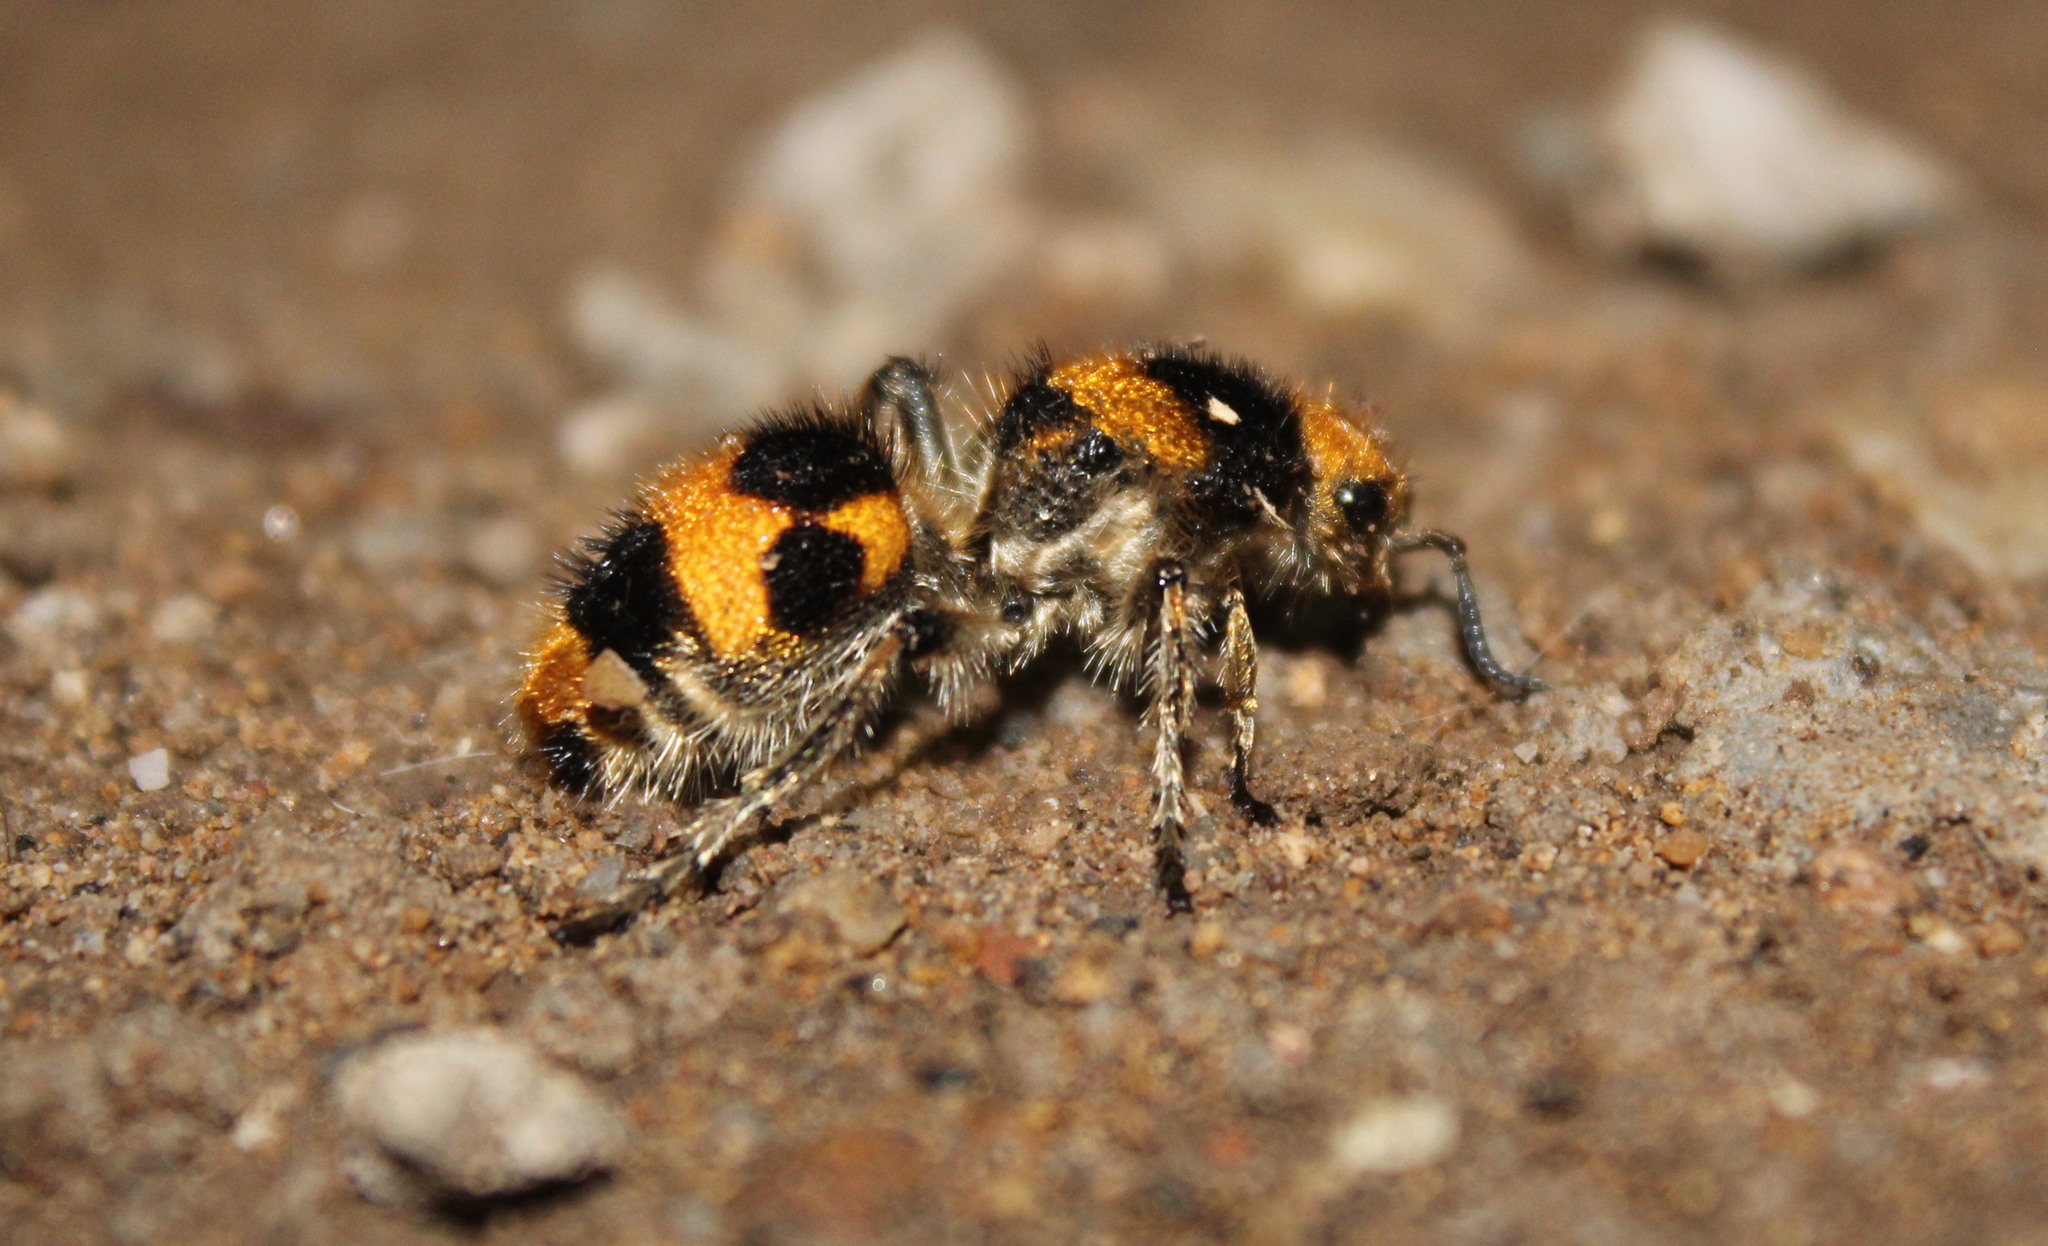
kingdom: Animalia
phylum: Arthropoda
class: Insecta
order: Hymenoptera
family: Mutillidae
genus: Dasymutilla
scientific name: Dasymutilla pulchra
